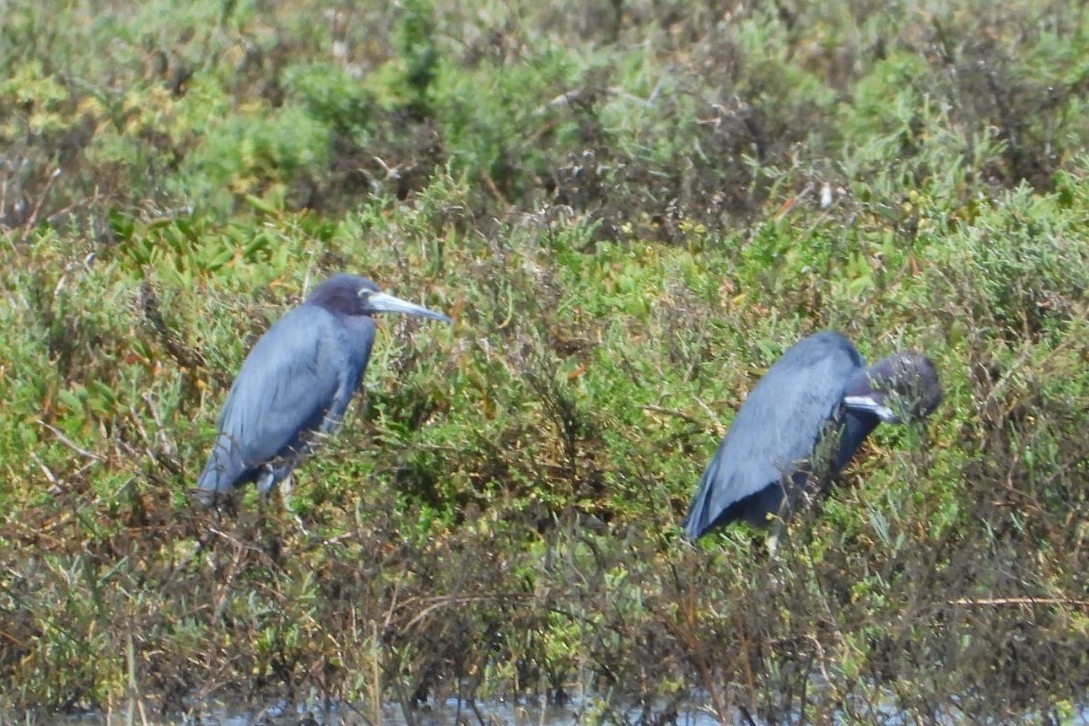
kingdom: Animalia
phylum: Chordata
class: Aves
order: Pelecaniformes
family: Ardeidae
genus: Egretta
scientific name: Egretta caerulea
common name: Little blue heron
